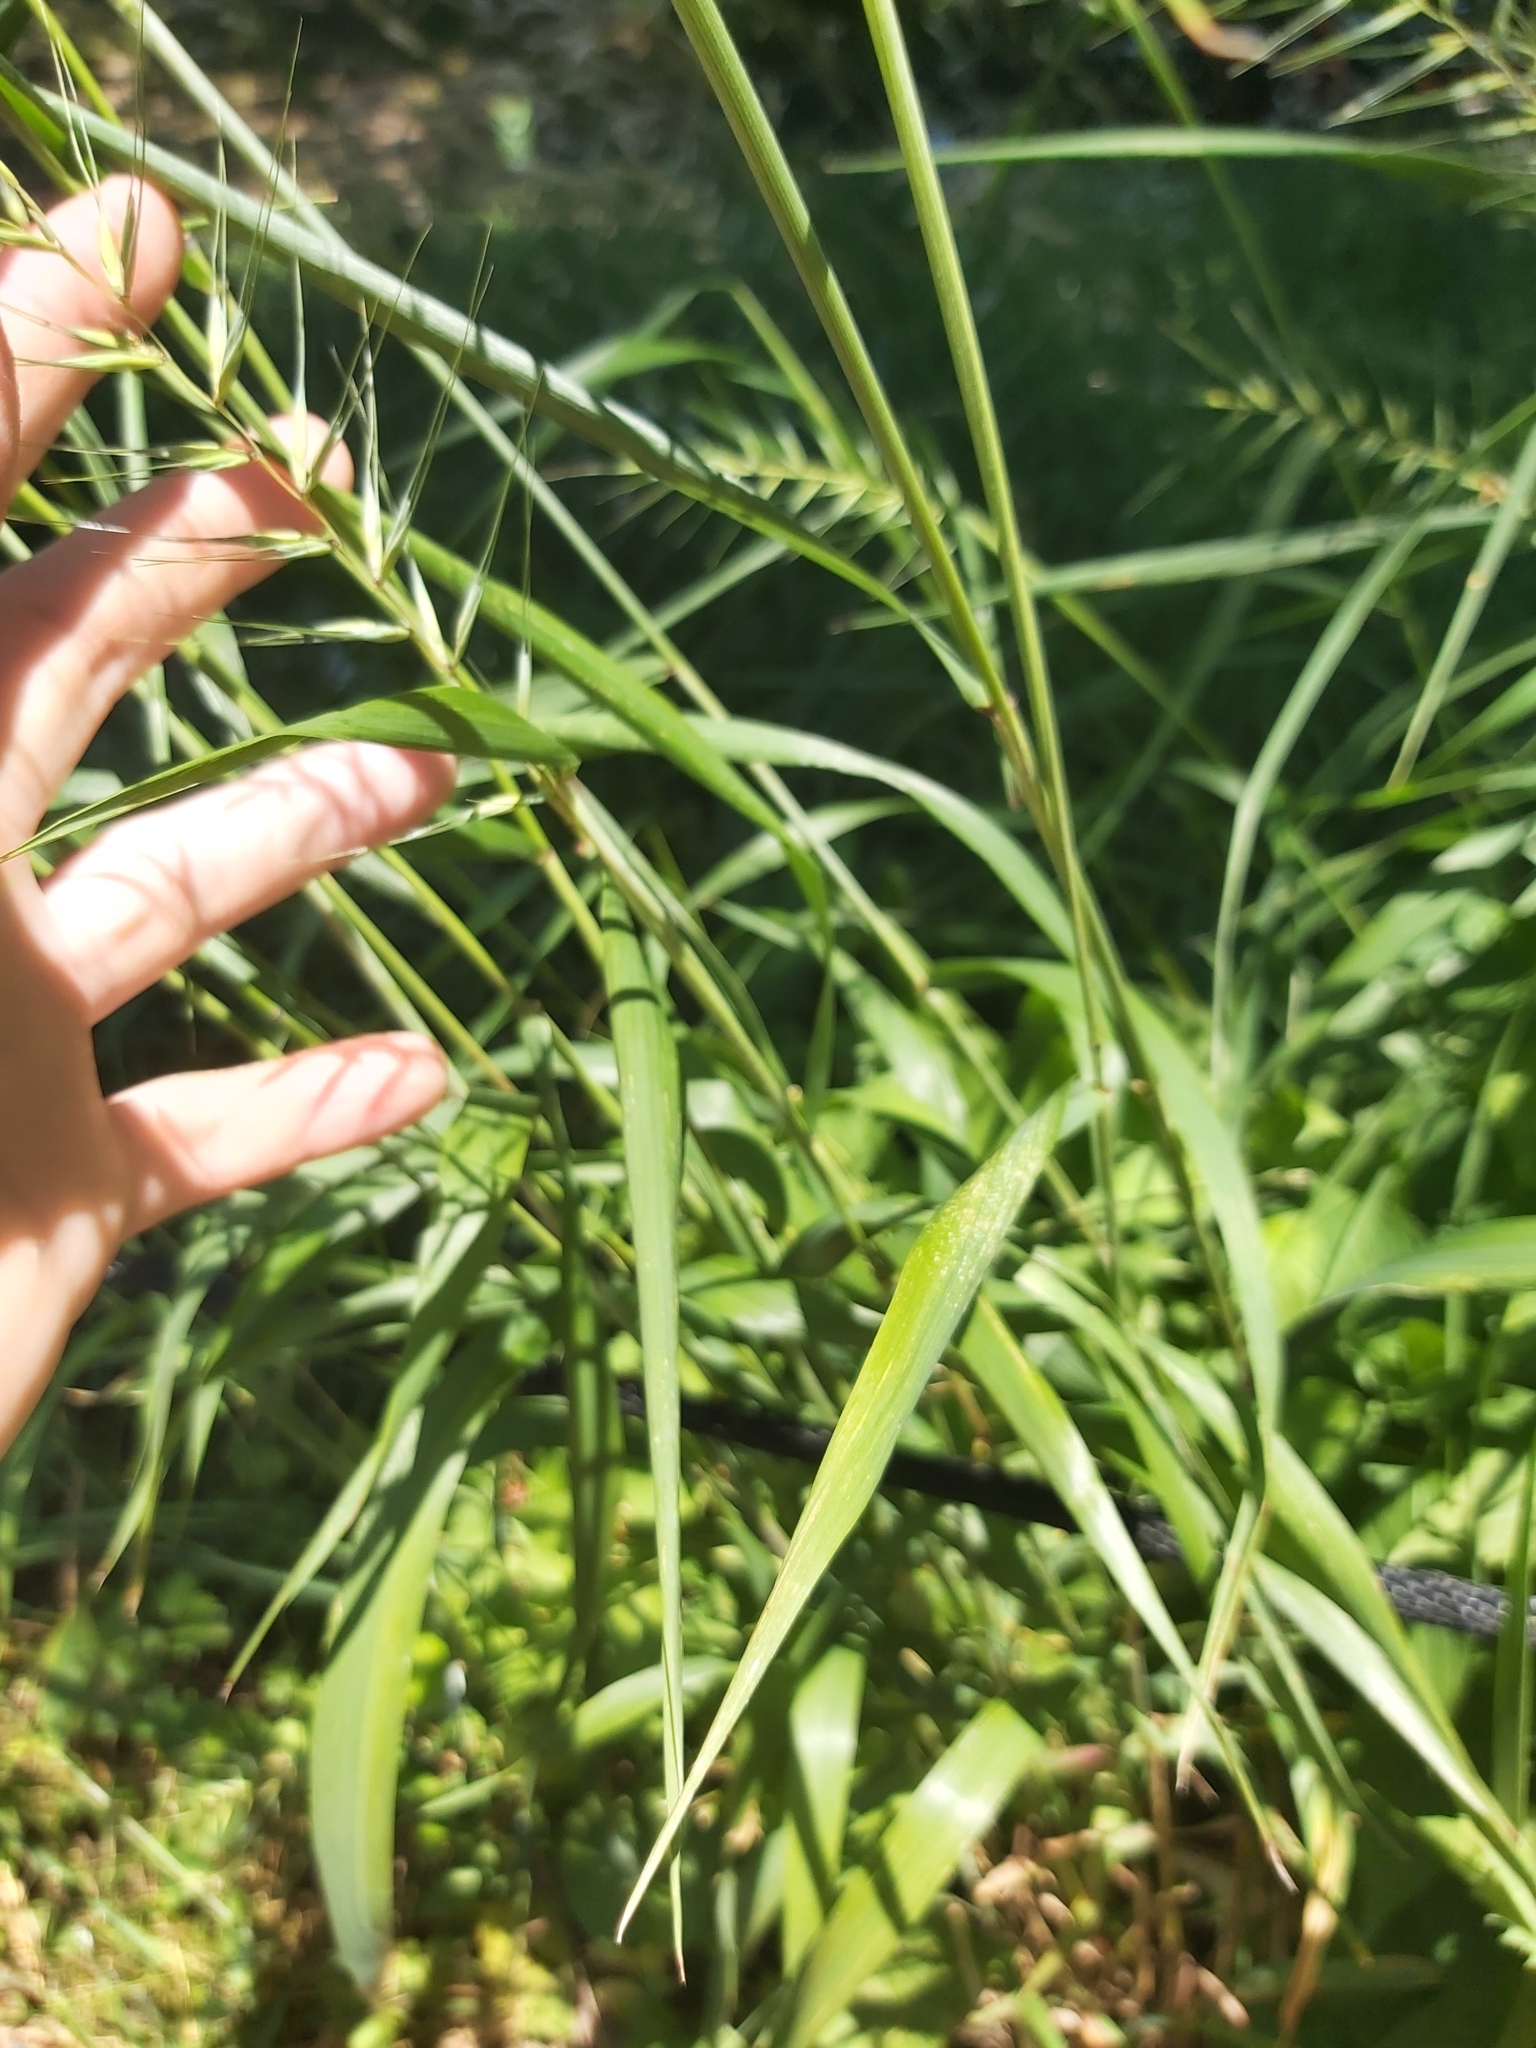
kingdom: Plantae
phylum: Tracheophyta
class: Liliopsida
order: Poales
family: Poaceae
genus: Elymus
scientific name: Elymus hystrix
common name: Bottlebrush grass
